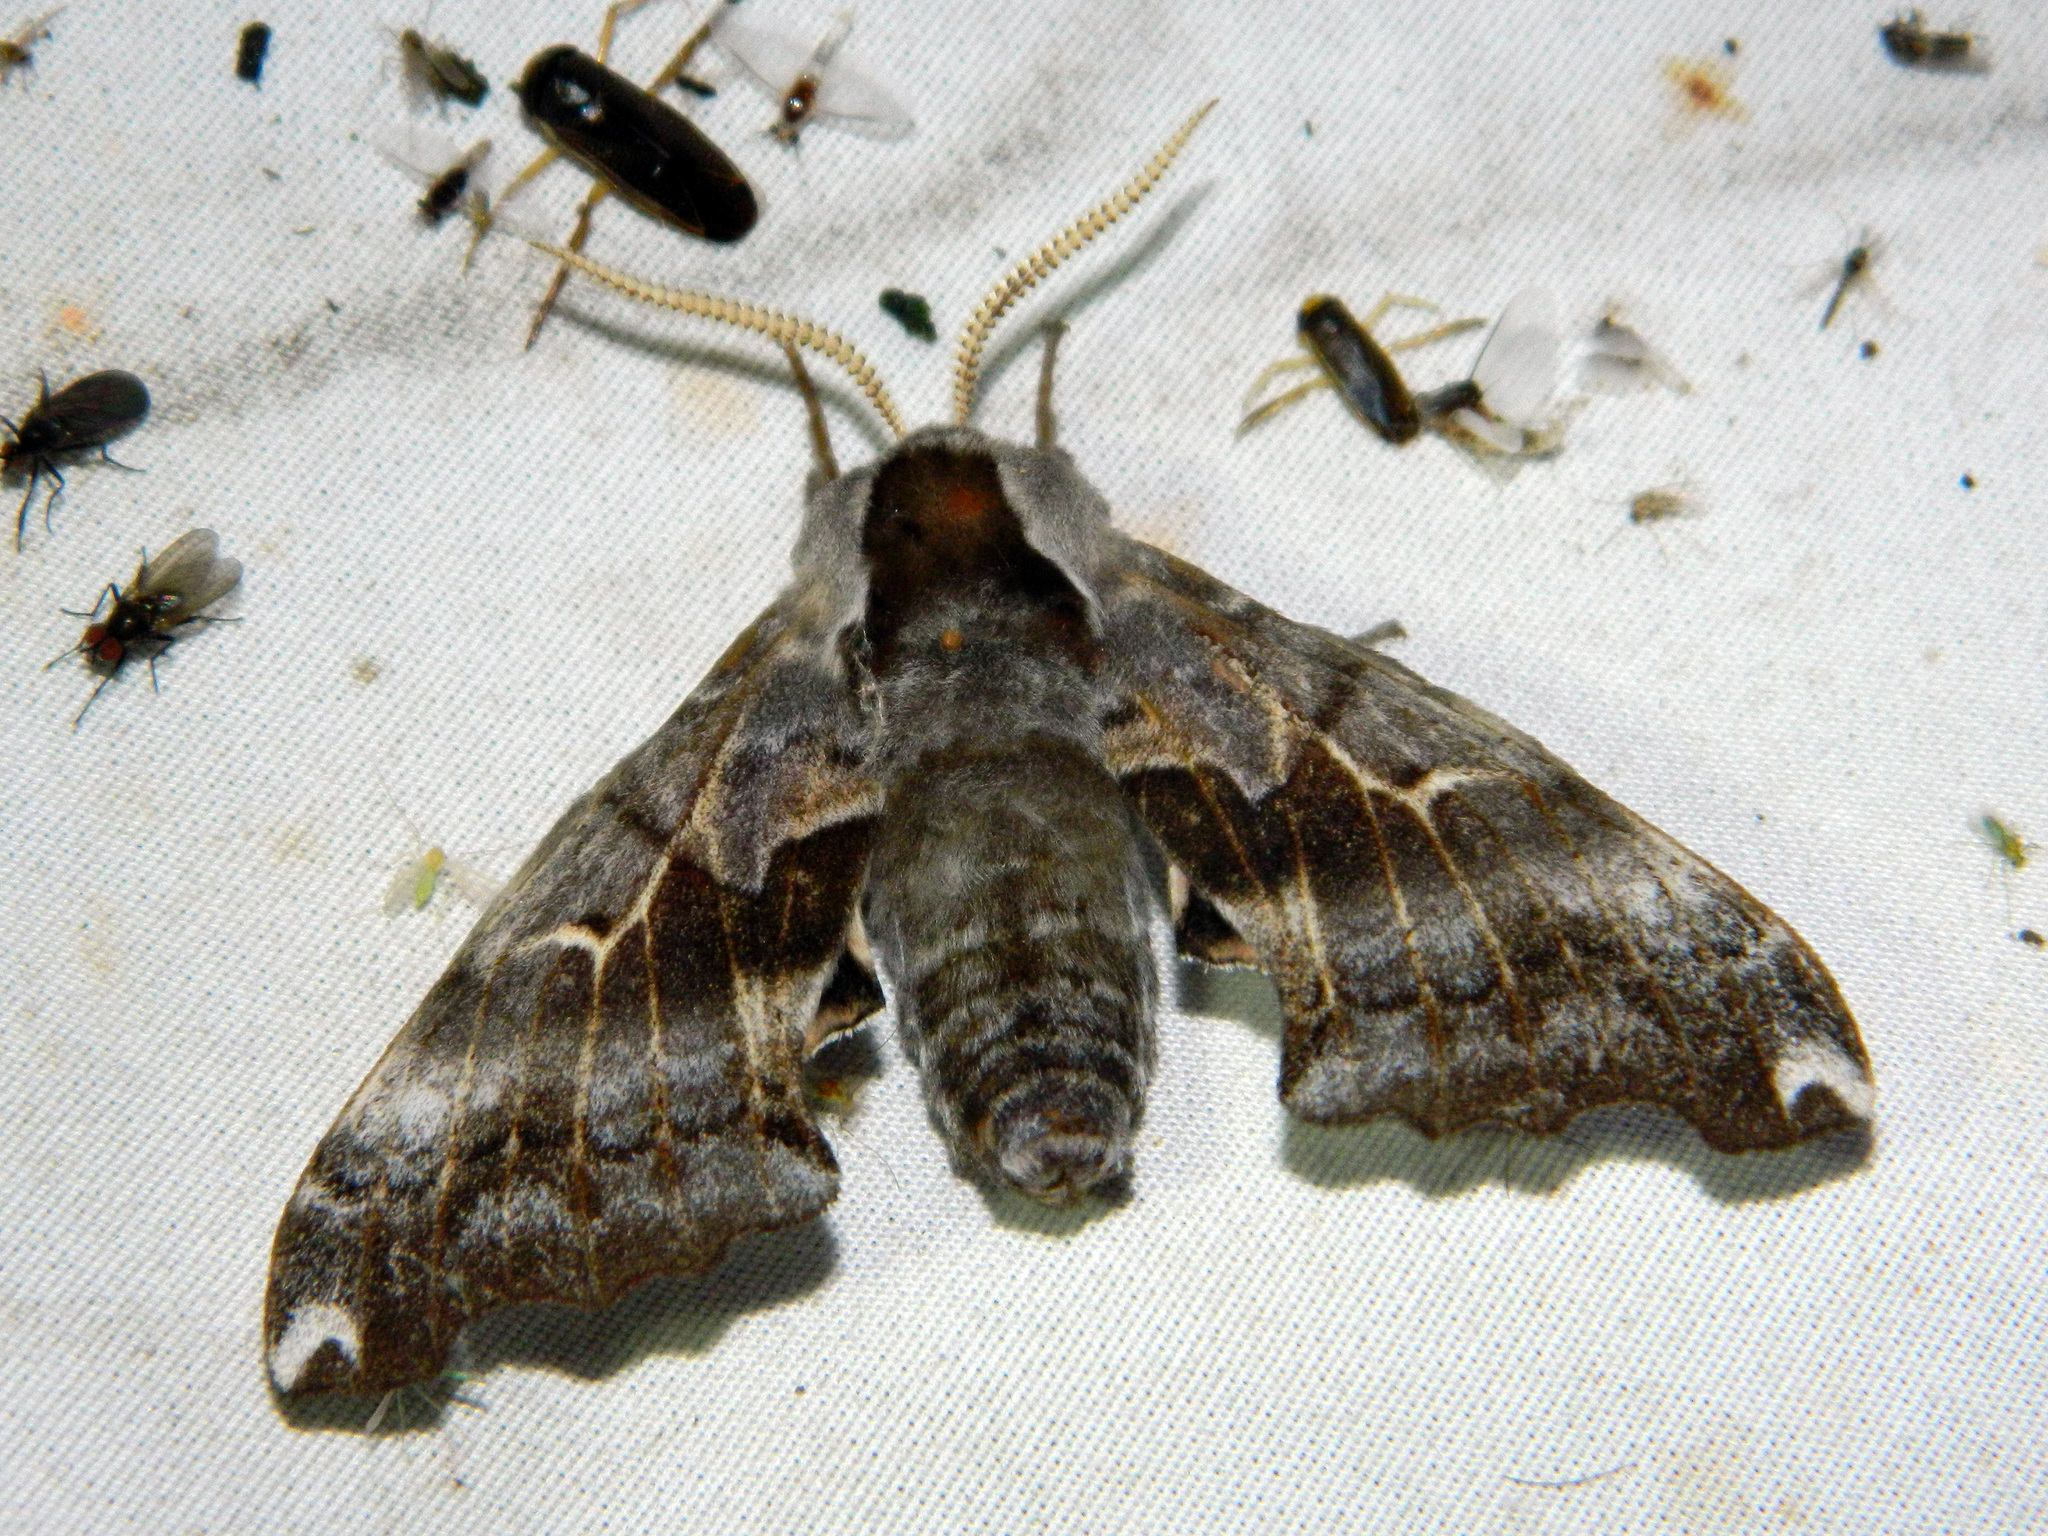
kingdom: Animalia
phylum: Arthropoda
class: Insecta
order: Lepidoptera
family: Sphingidae
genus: Smerinthus
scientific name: Smerinthus cerisyi
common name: Cerisy's sphinx moth
